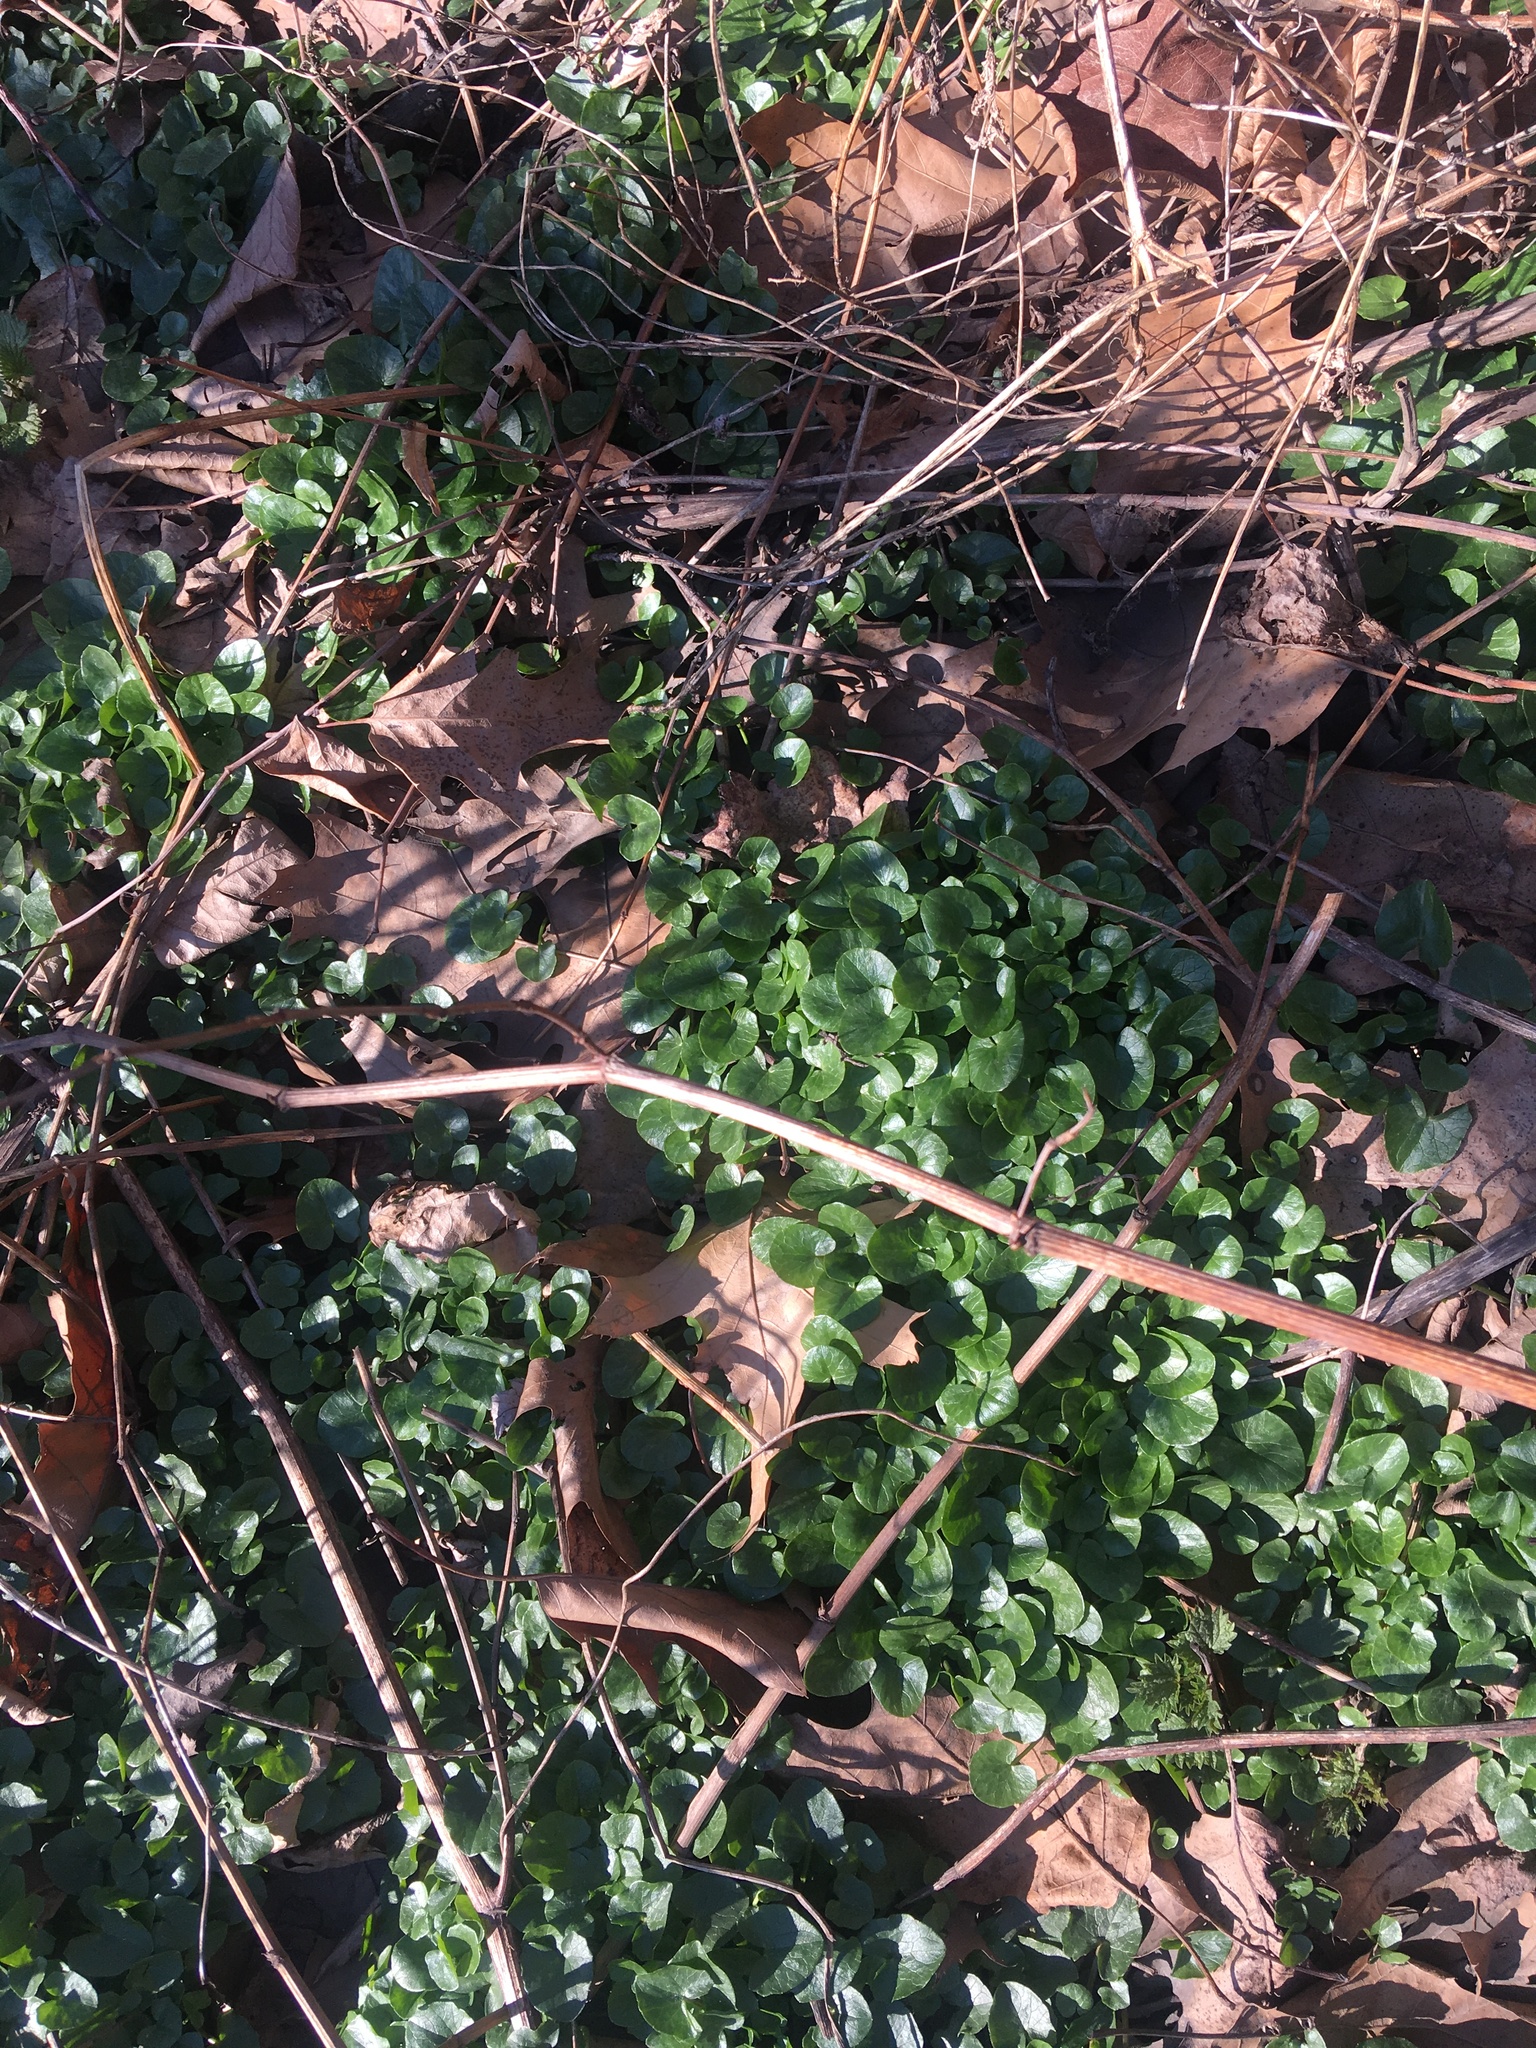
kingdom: Plantae
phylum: Tracheophyta
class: Magnoliopsida
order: Ranunculales
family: Ranunculaceae
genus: Ficaria
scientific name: Ficaria verna
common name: Lesser celandine
